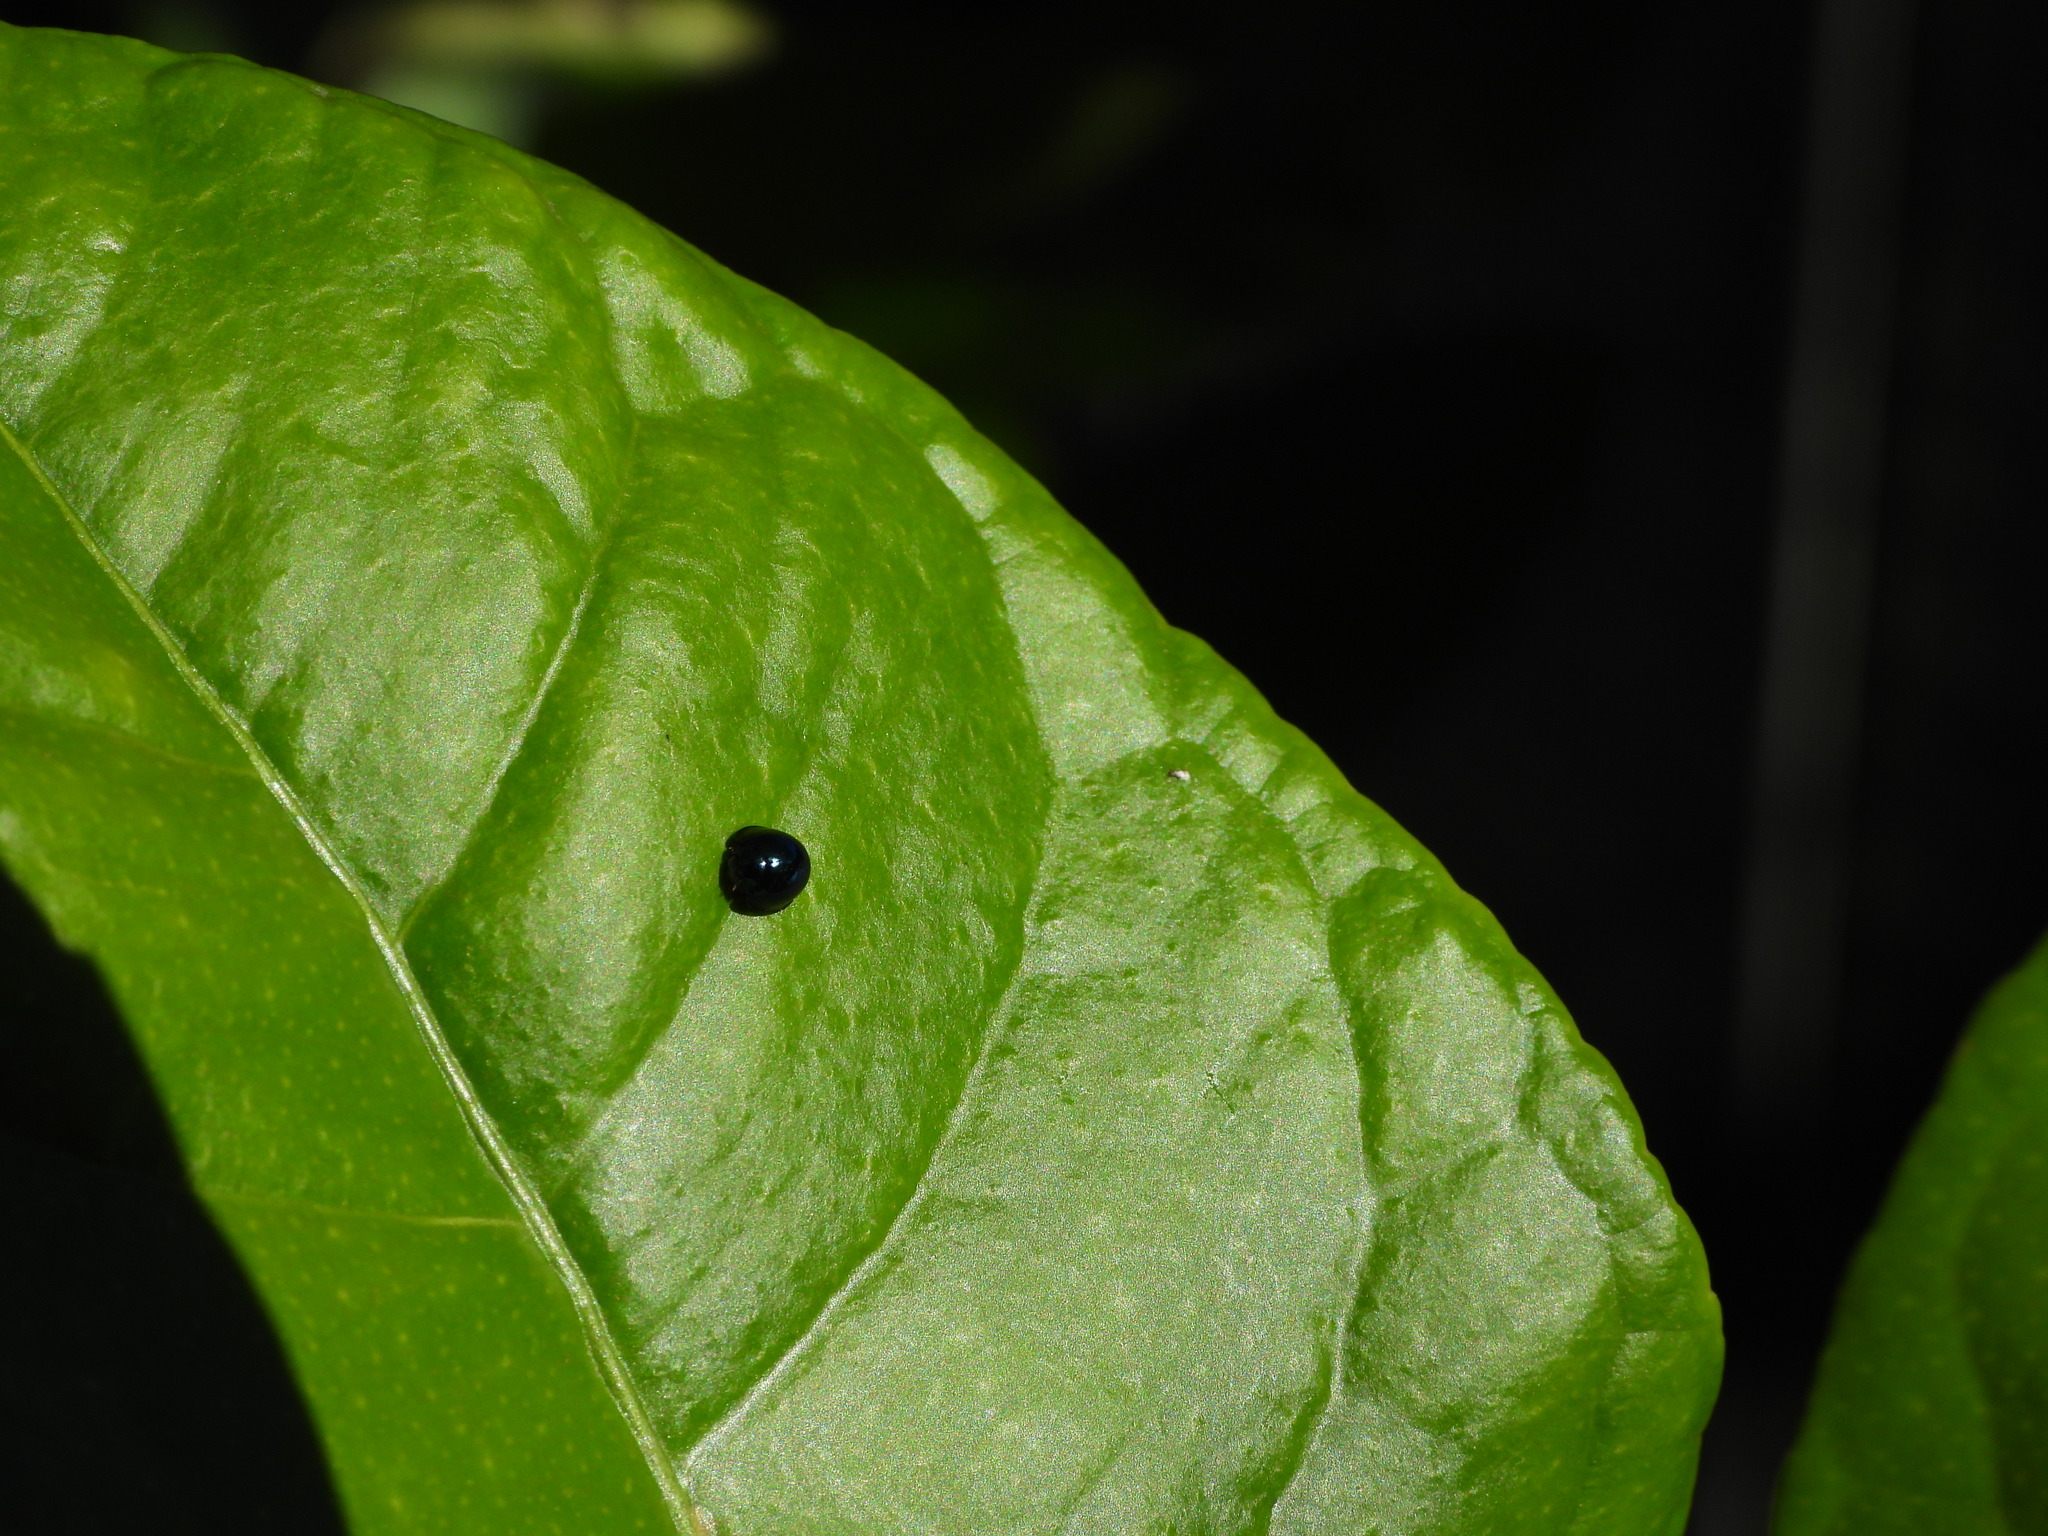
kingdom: Animalia
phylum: Arthropoda
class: Insecta
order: Coleoptera
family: Coccinellidae
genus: Halmus
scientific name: Halmus chalybeus
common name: Steel blue ladybird beetle
